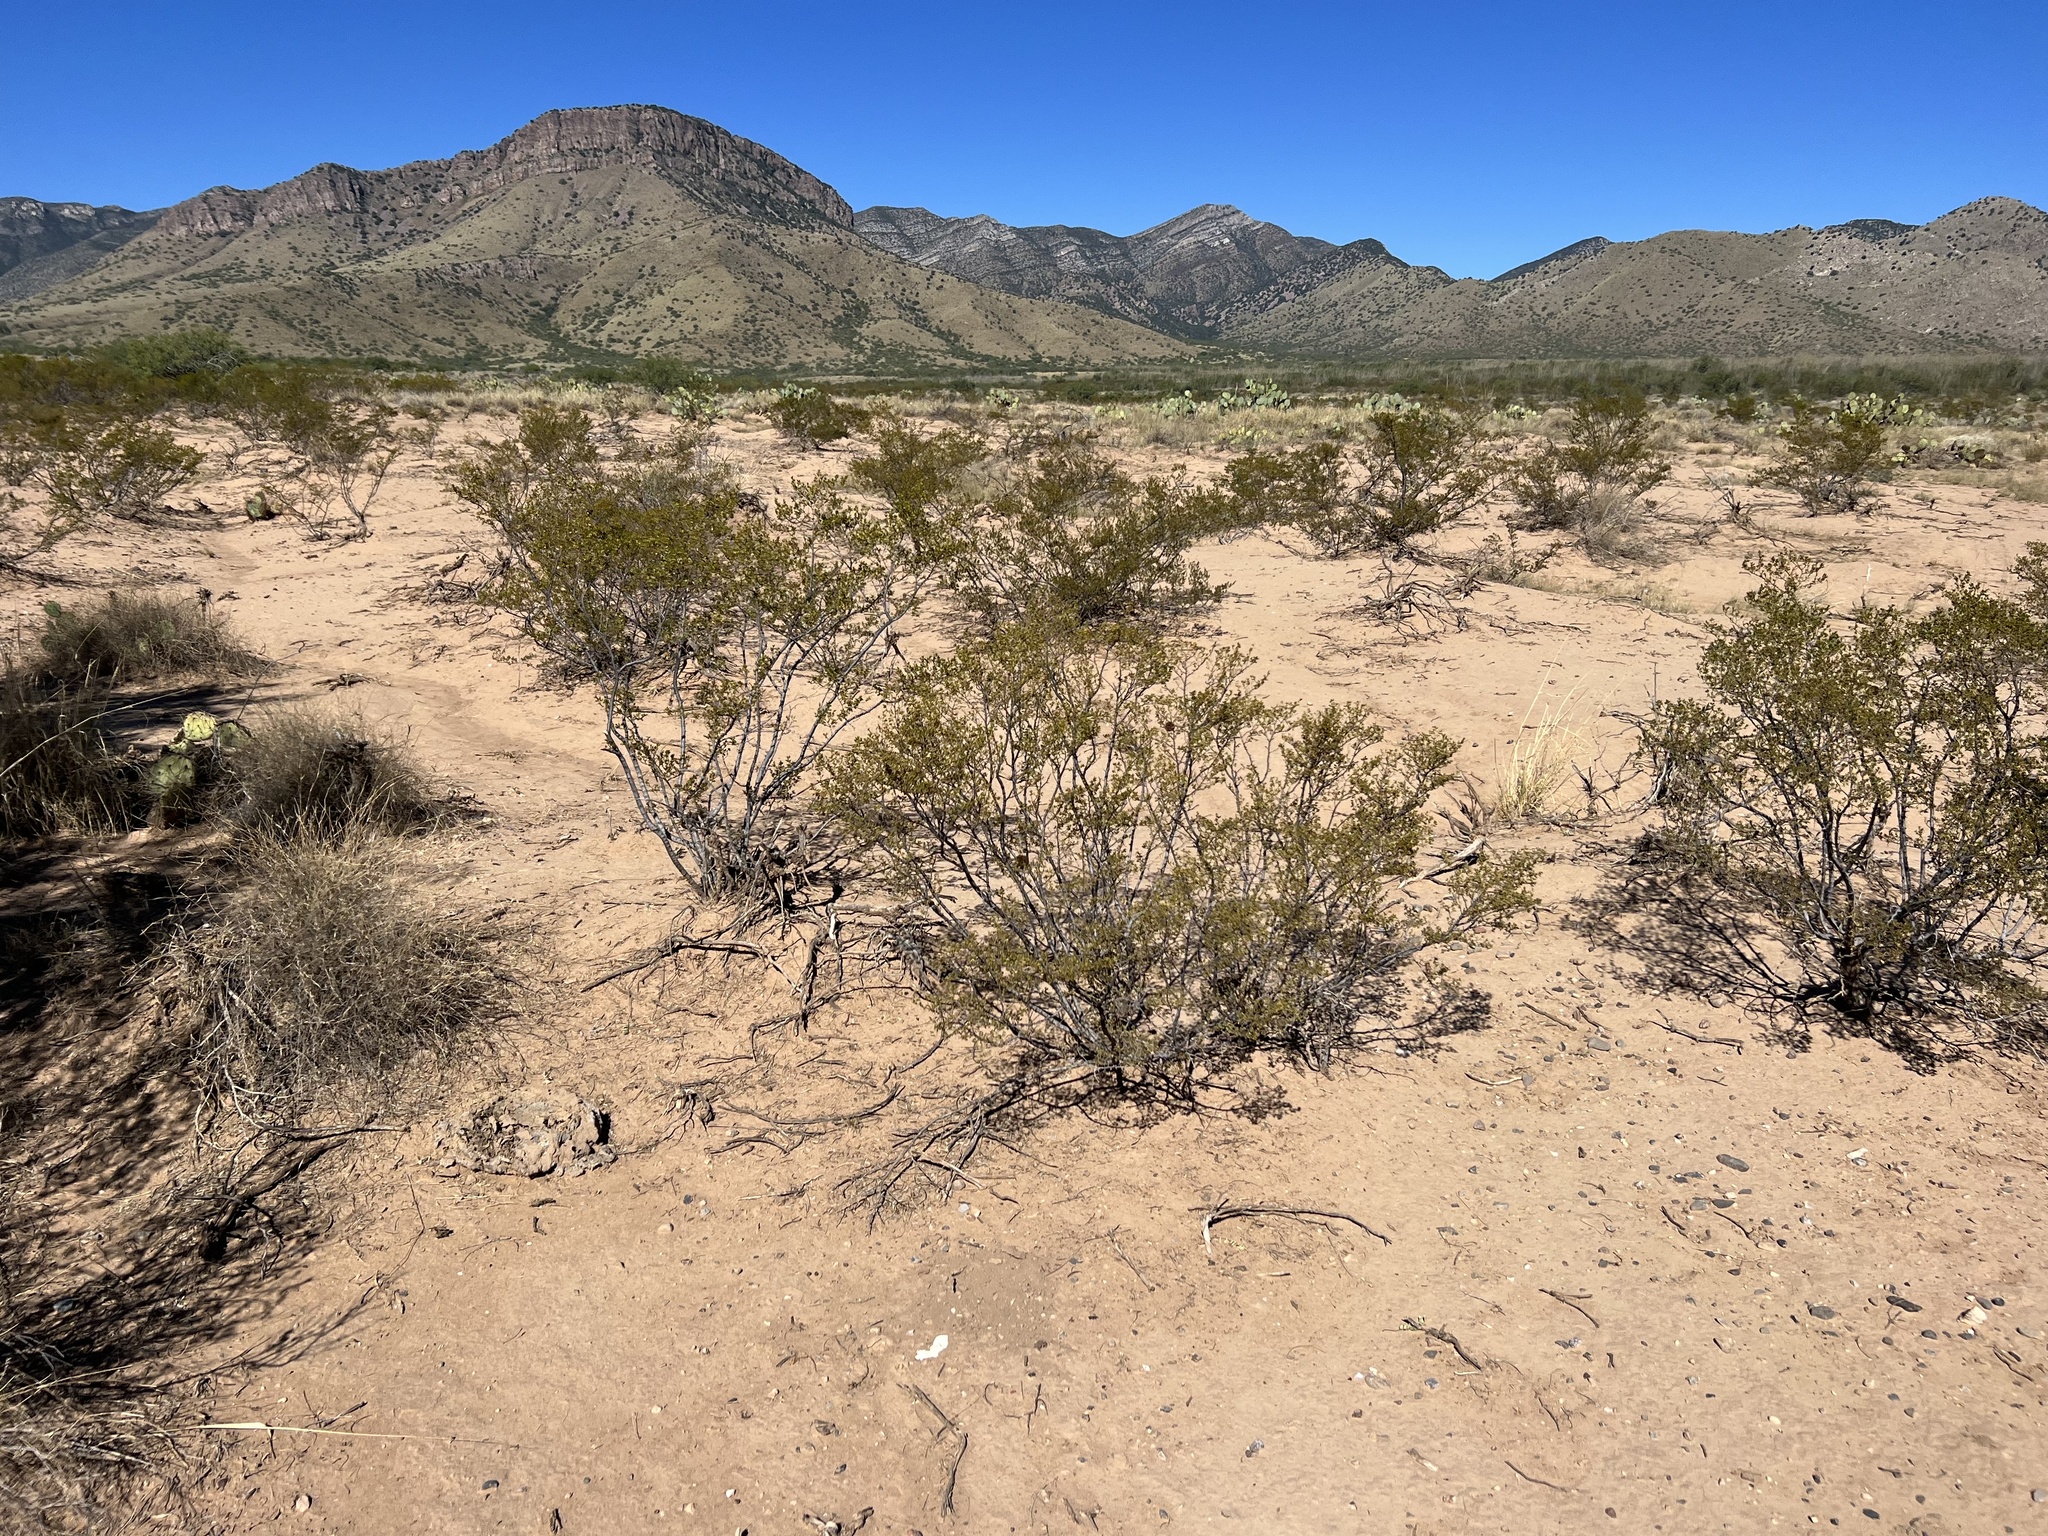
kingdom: Plantae
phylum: Tracheophyta
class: Magnoliopsida
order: Zygophyllales
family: Zygophyllaceae
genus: Larrea
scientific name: Larrea tridentata
